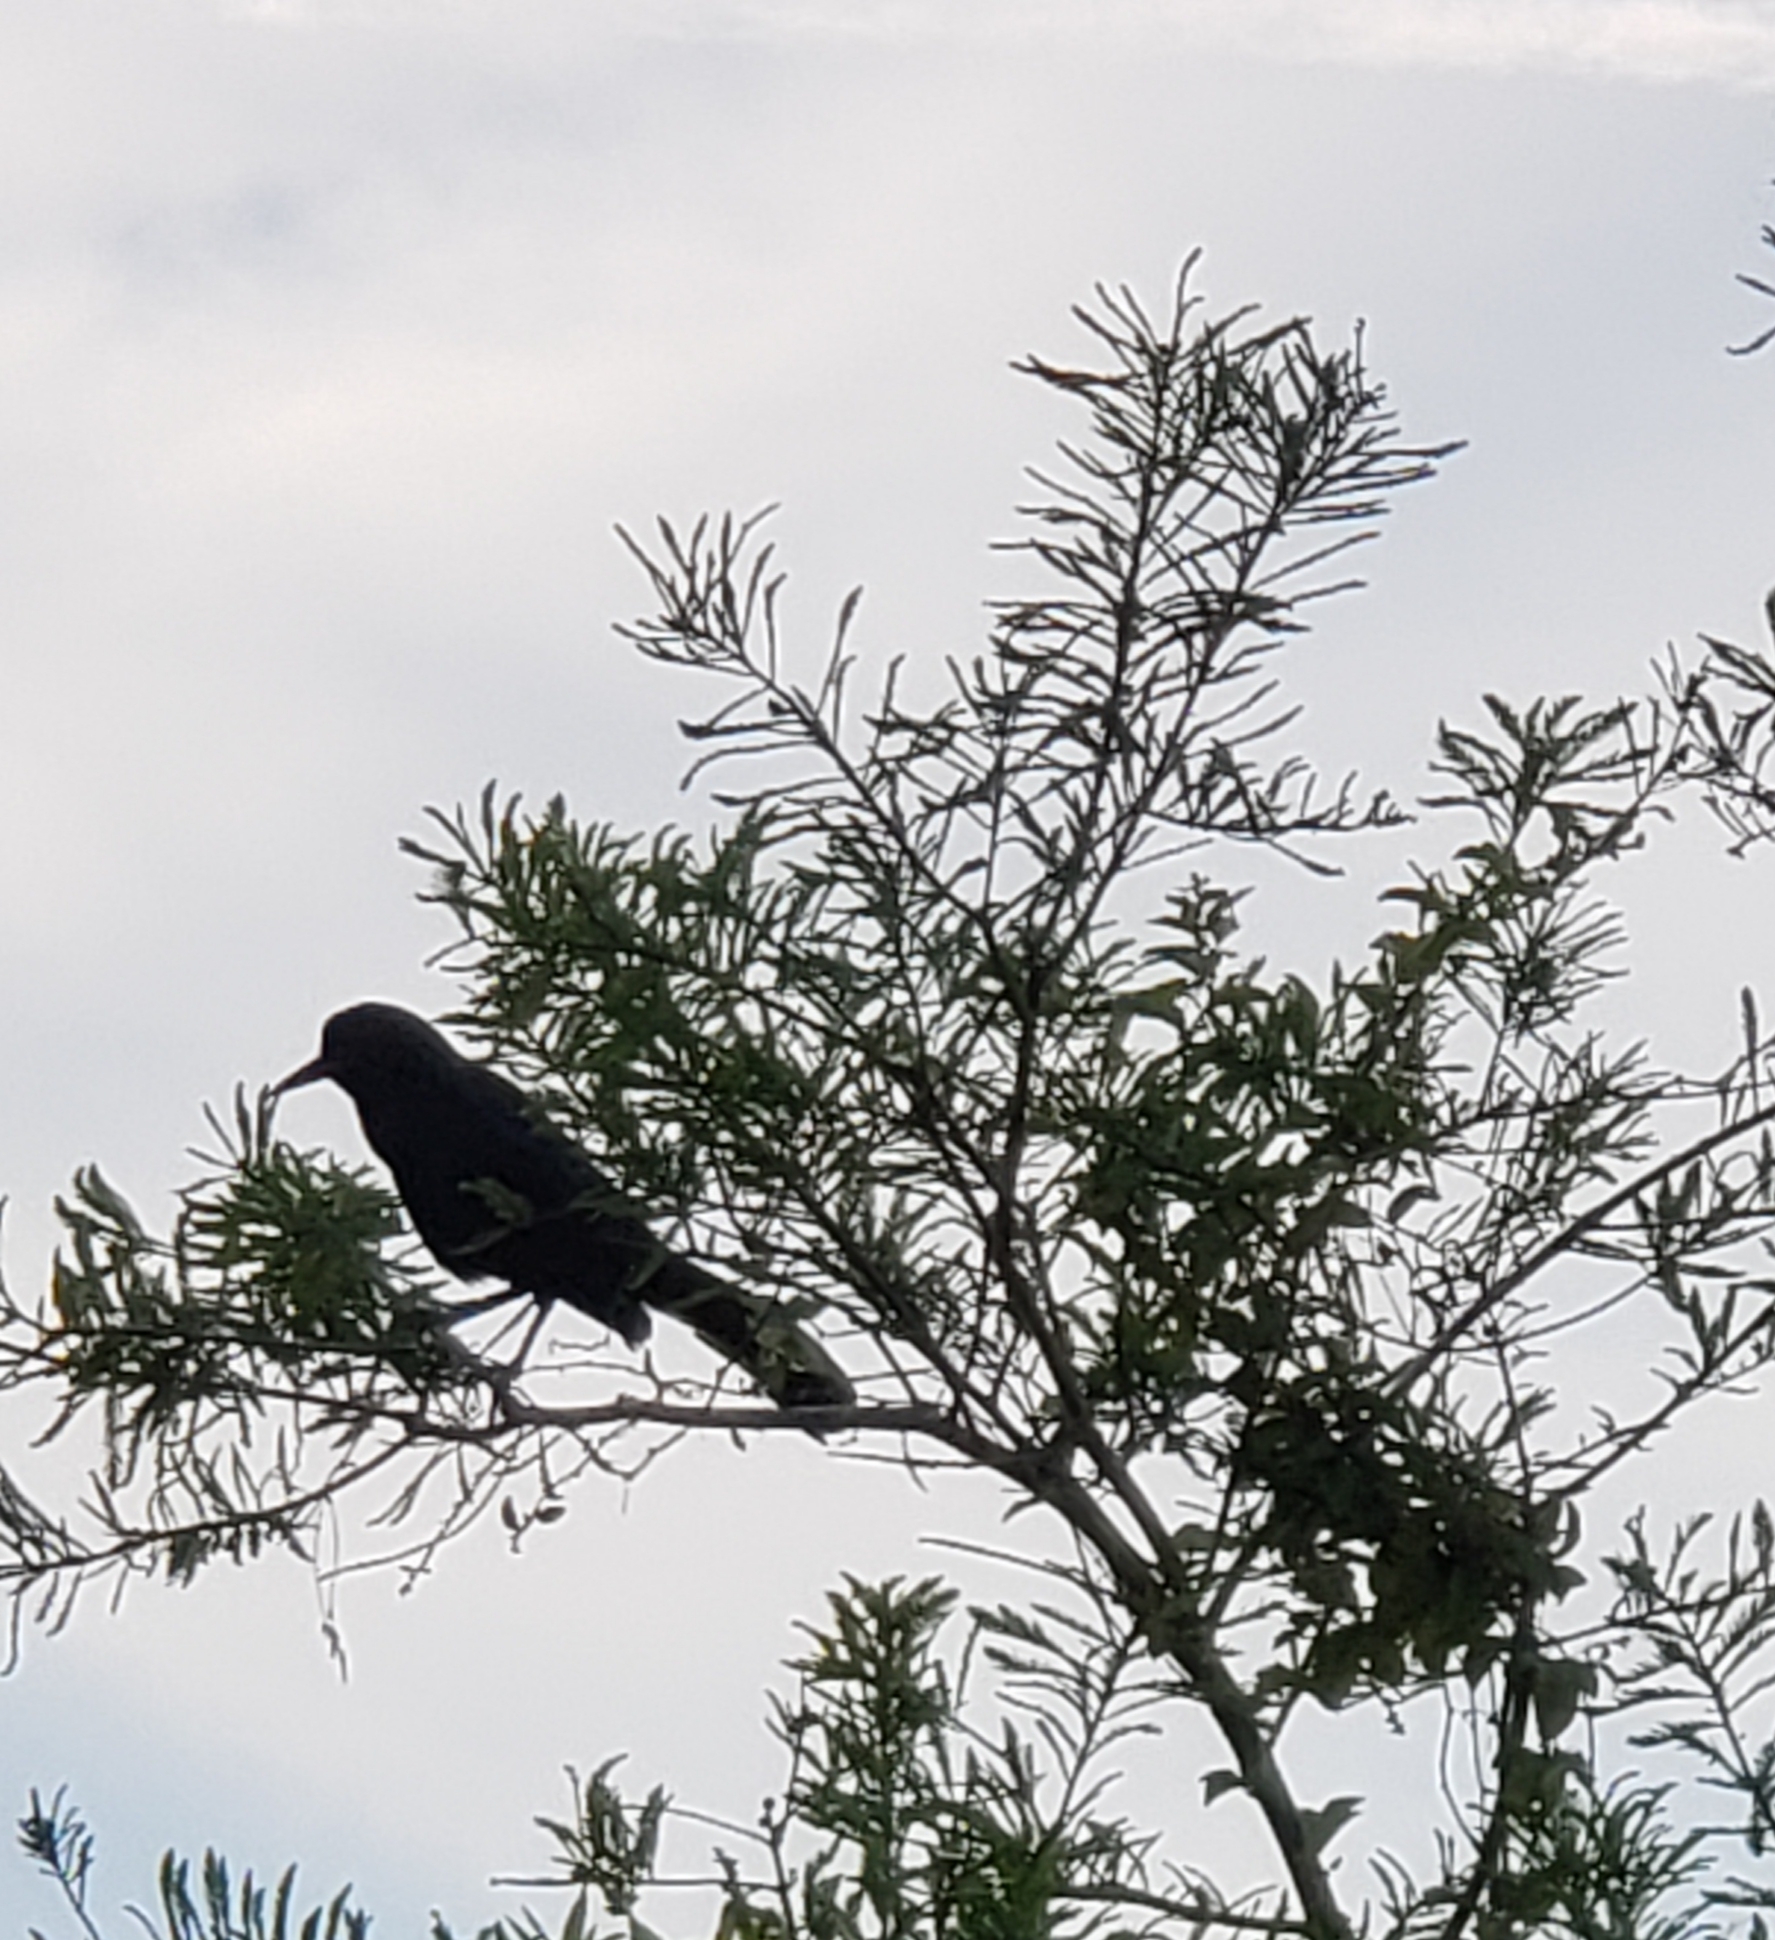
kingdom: Animalia
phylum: Chordata
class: Aves
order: Passeriformes
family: Icteridae
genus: Quiscalus
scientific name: Quiscalus major
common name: Boat-tailed grackle
